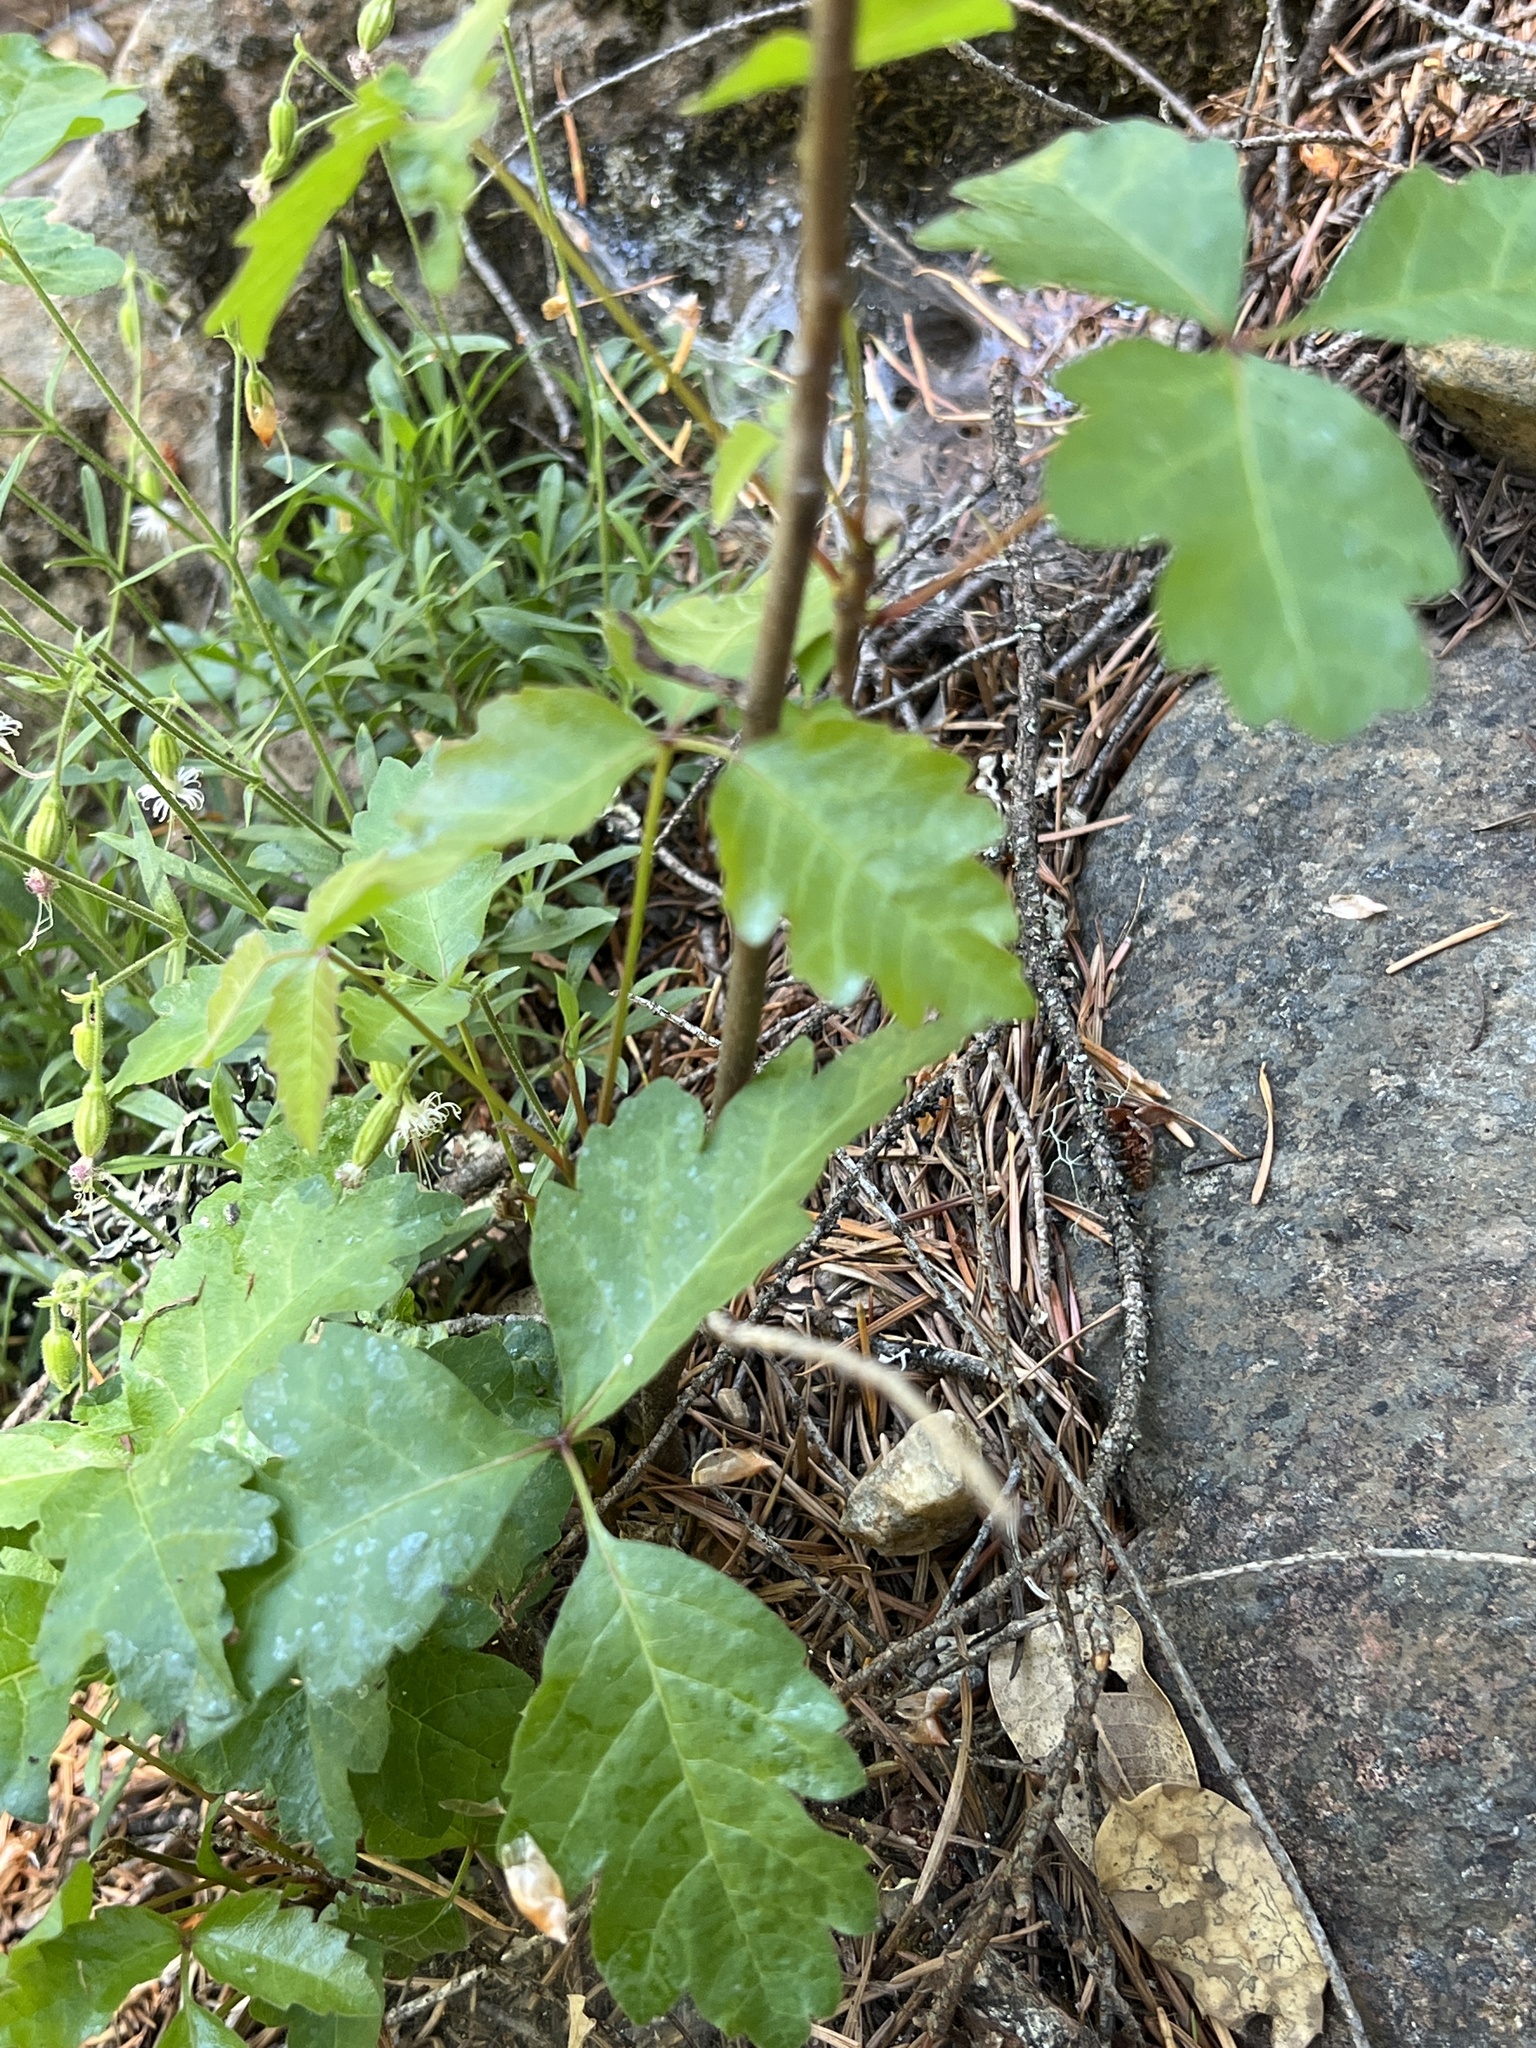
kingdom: Plantae
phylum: Tracheophyta
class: Magnoliopsida
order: Sapindales
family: Anacardiaceae
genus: Toxicodendron
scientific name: Toxicodendron diversilobum
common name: Pacific poison-oak
